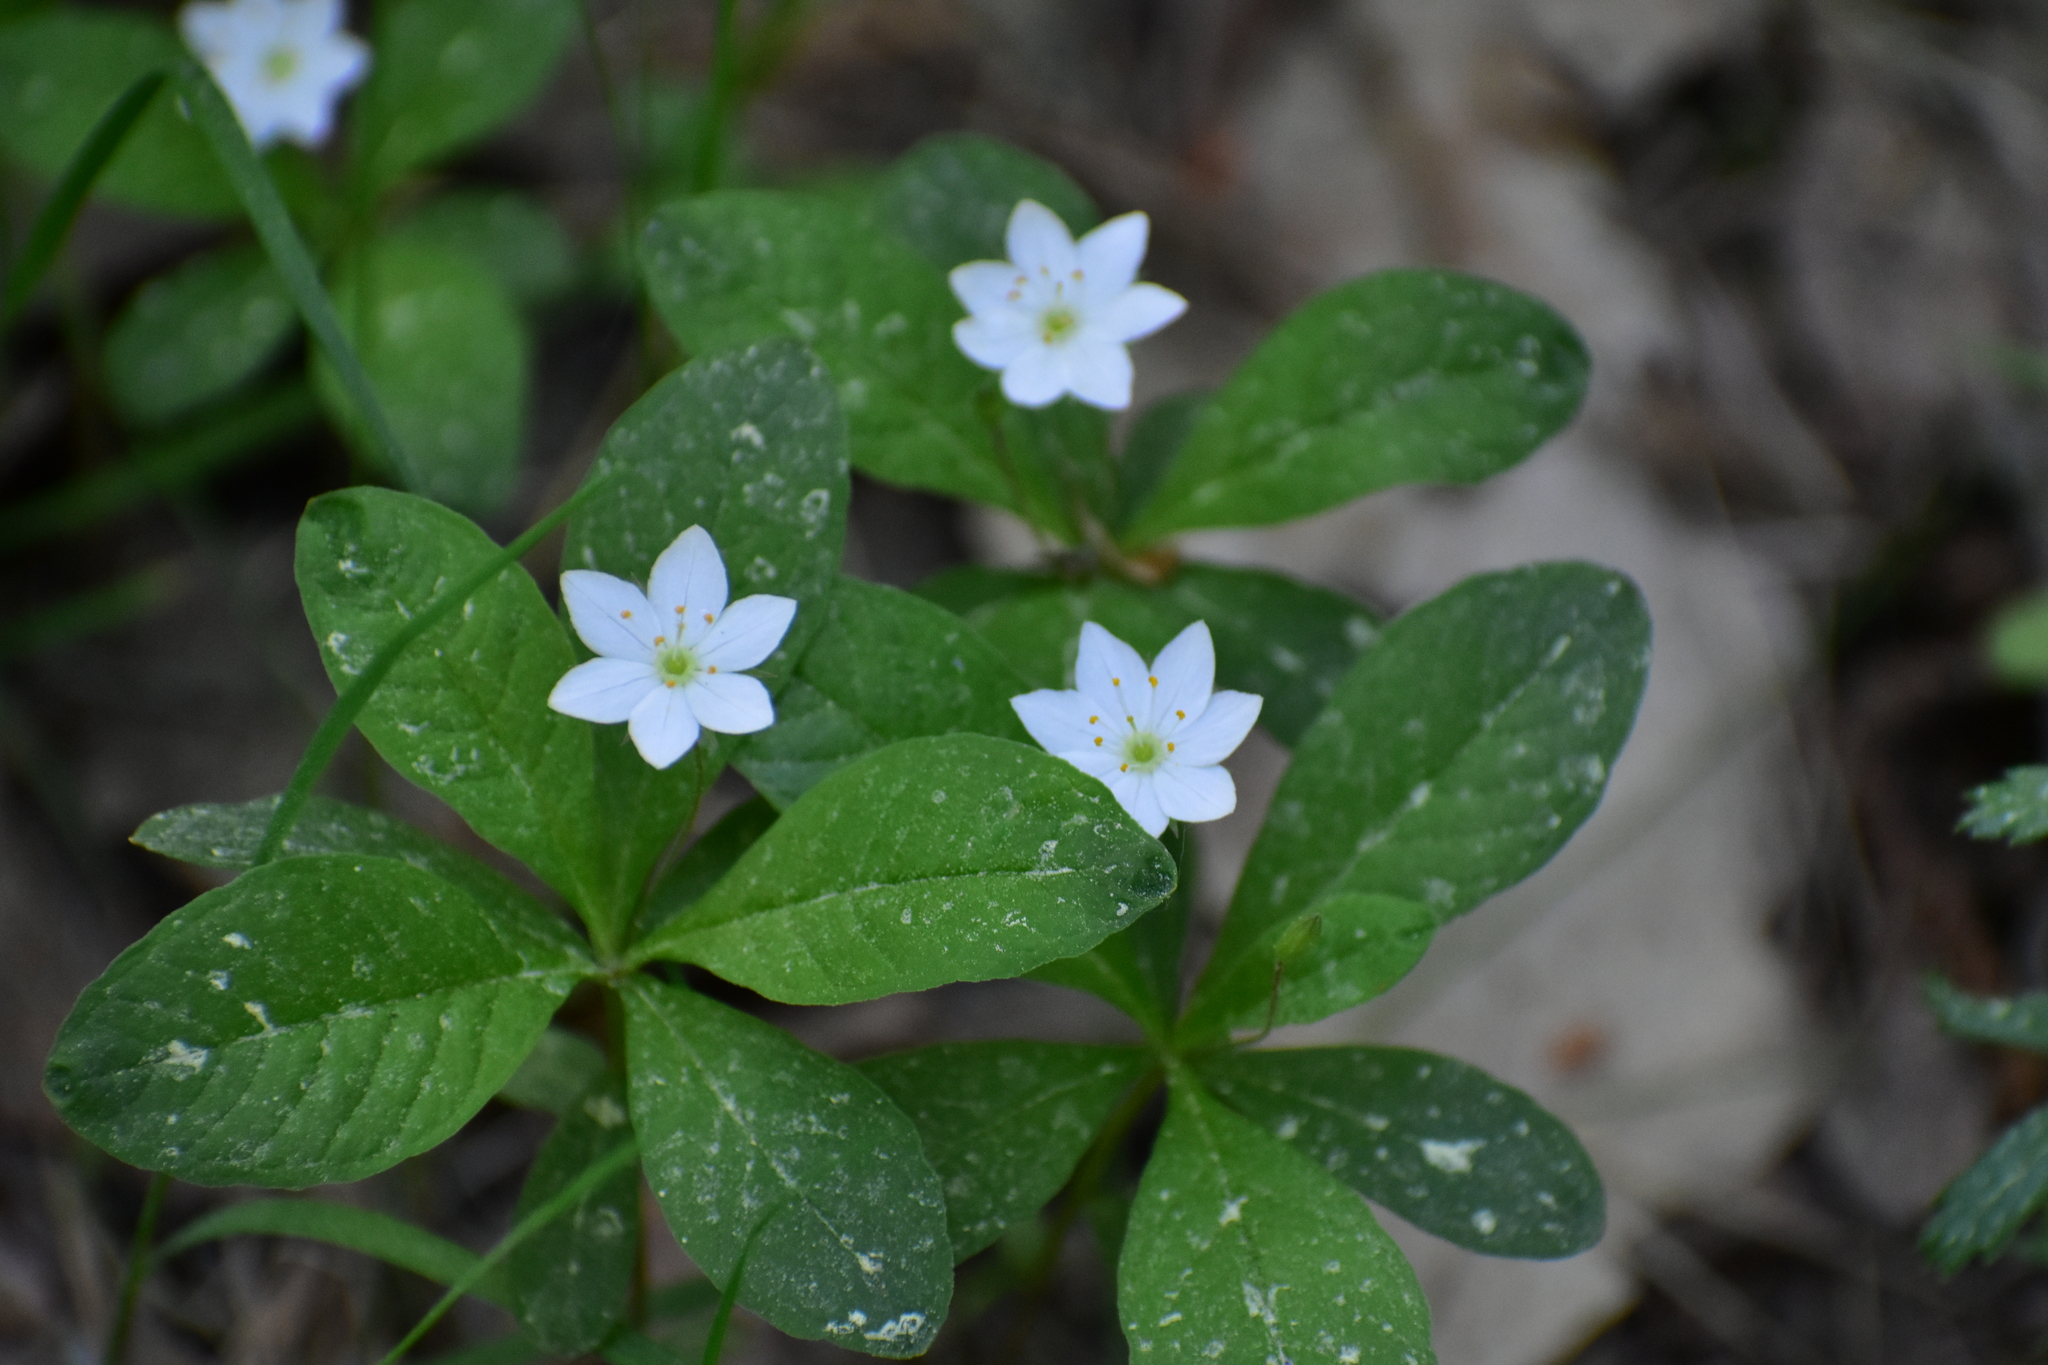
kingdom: Plantae
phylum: Tracheophyta
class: Magnoliopsida
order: Ericales
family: Primulaceae
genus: Lysimachia
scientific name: Lysimachia europaea
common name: Arctic starflower
